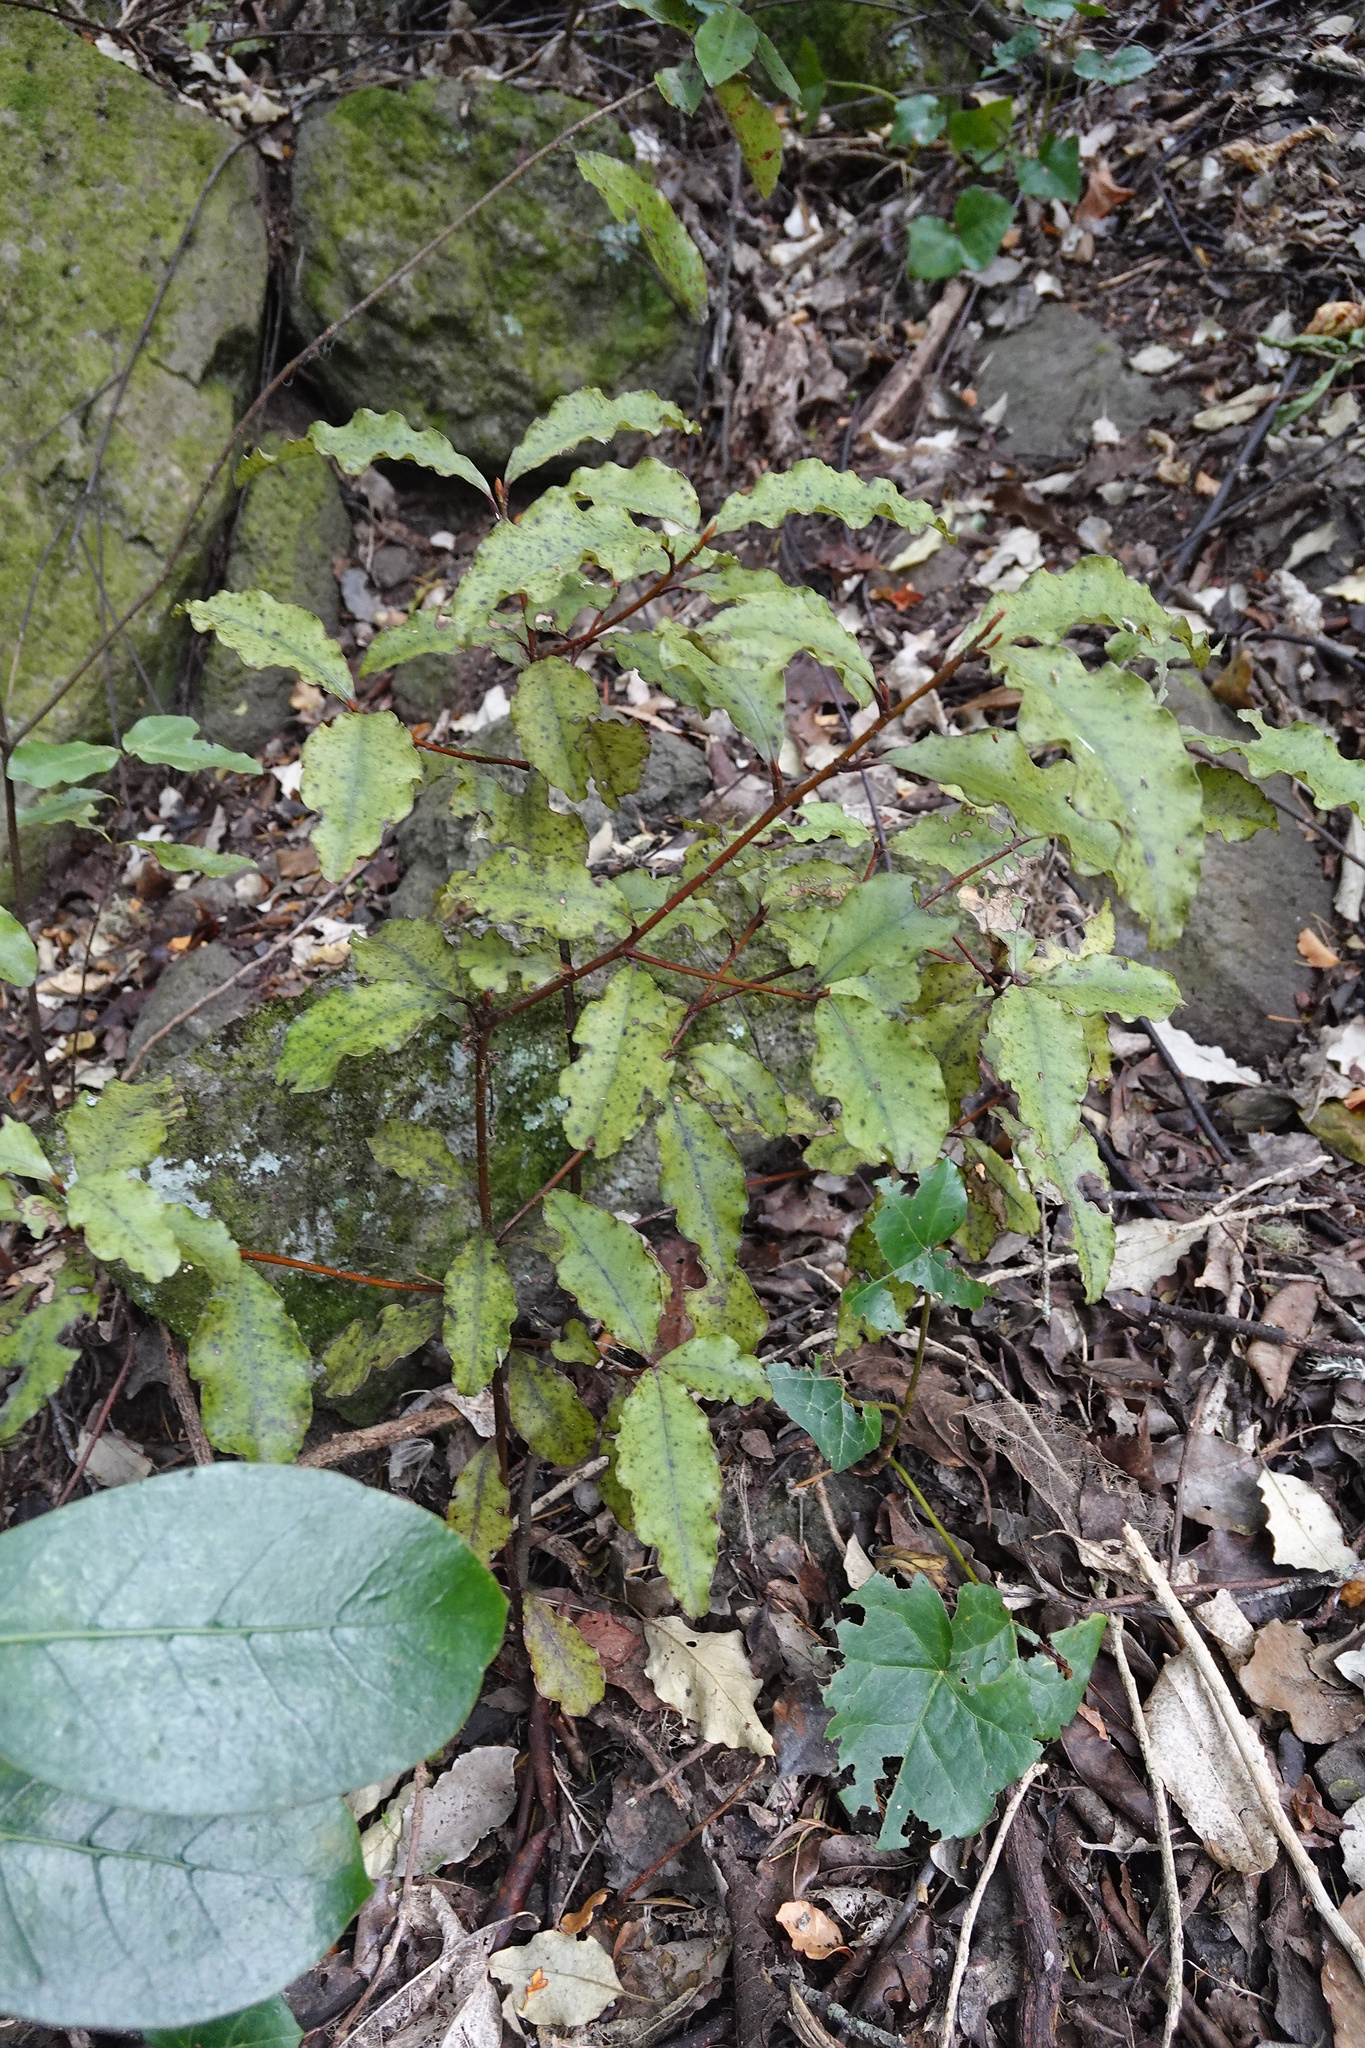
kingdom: Plantae
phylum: Tracheophyta
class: Magnoliopsida
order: Ericales
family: Primulaceae
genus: Myrsine
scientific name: Myrsine australis
